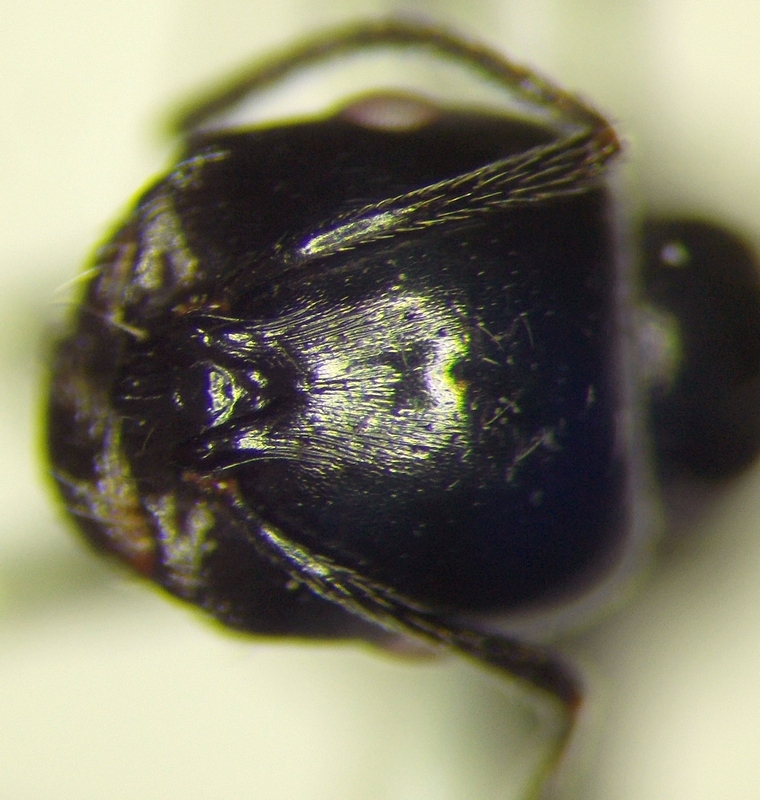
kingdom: Animalia
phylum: Arthropoda
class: Insecta
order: Hymenoptera
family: Formicidae
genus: Messor
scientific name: Messor pergandei
